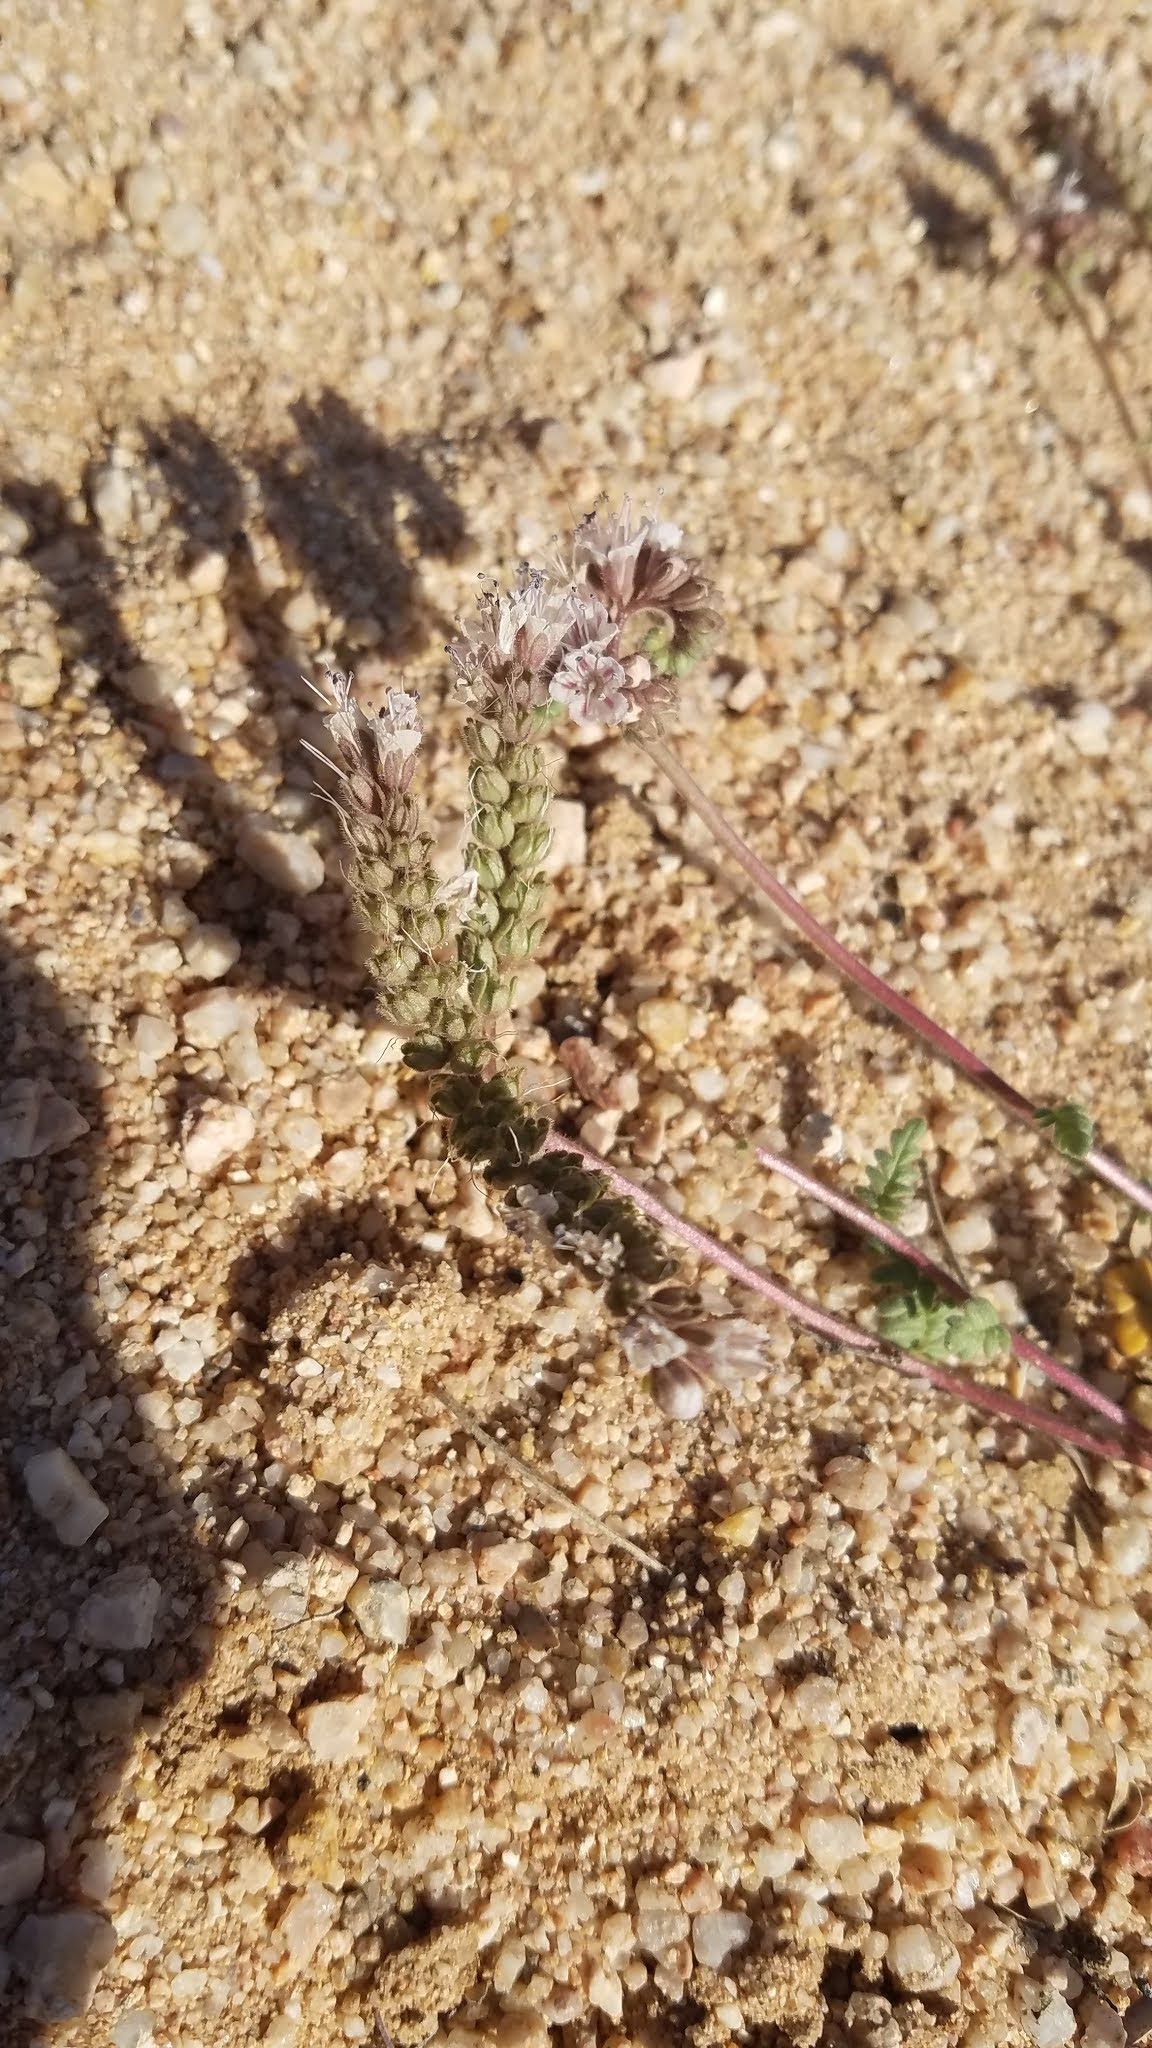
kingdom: Plantae
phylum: Tracheophyta
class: Magnoliopsida
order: Boraginales
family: Hydrophyllaceae
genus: Phacelia
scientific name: Phacelia arizonica
